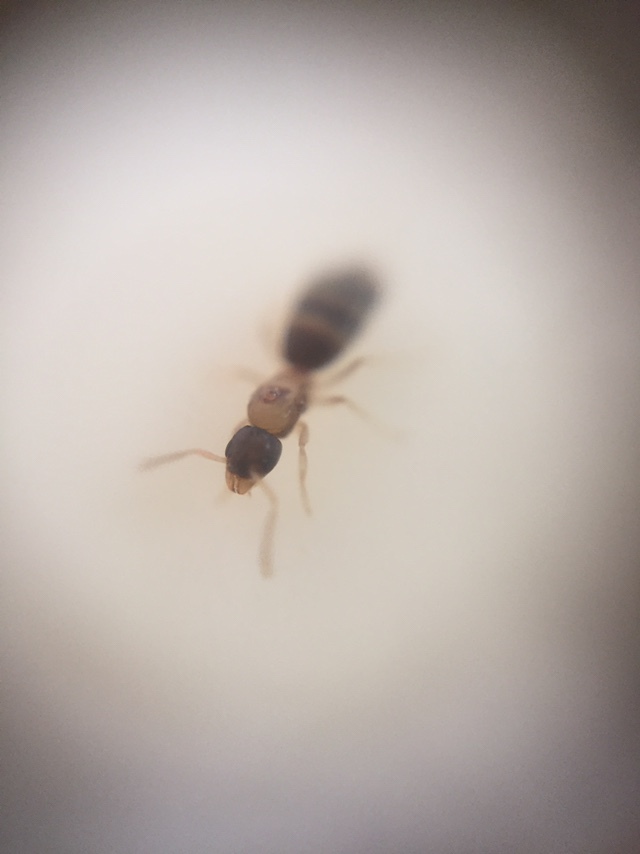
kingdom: Animalia
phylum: Arthropoda
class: Insecta
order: Hymenoptera
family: Formicidae
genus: Tapinoma
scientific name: Tapinoma melanocephalum
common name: Ghost ant
